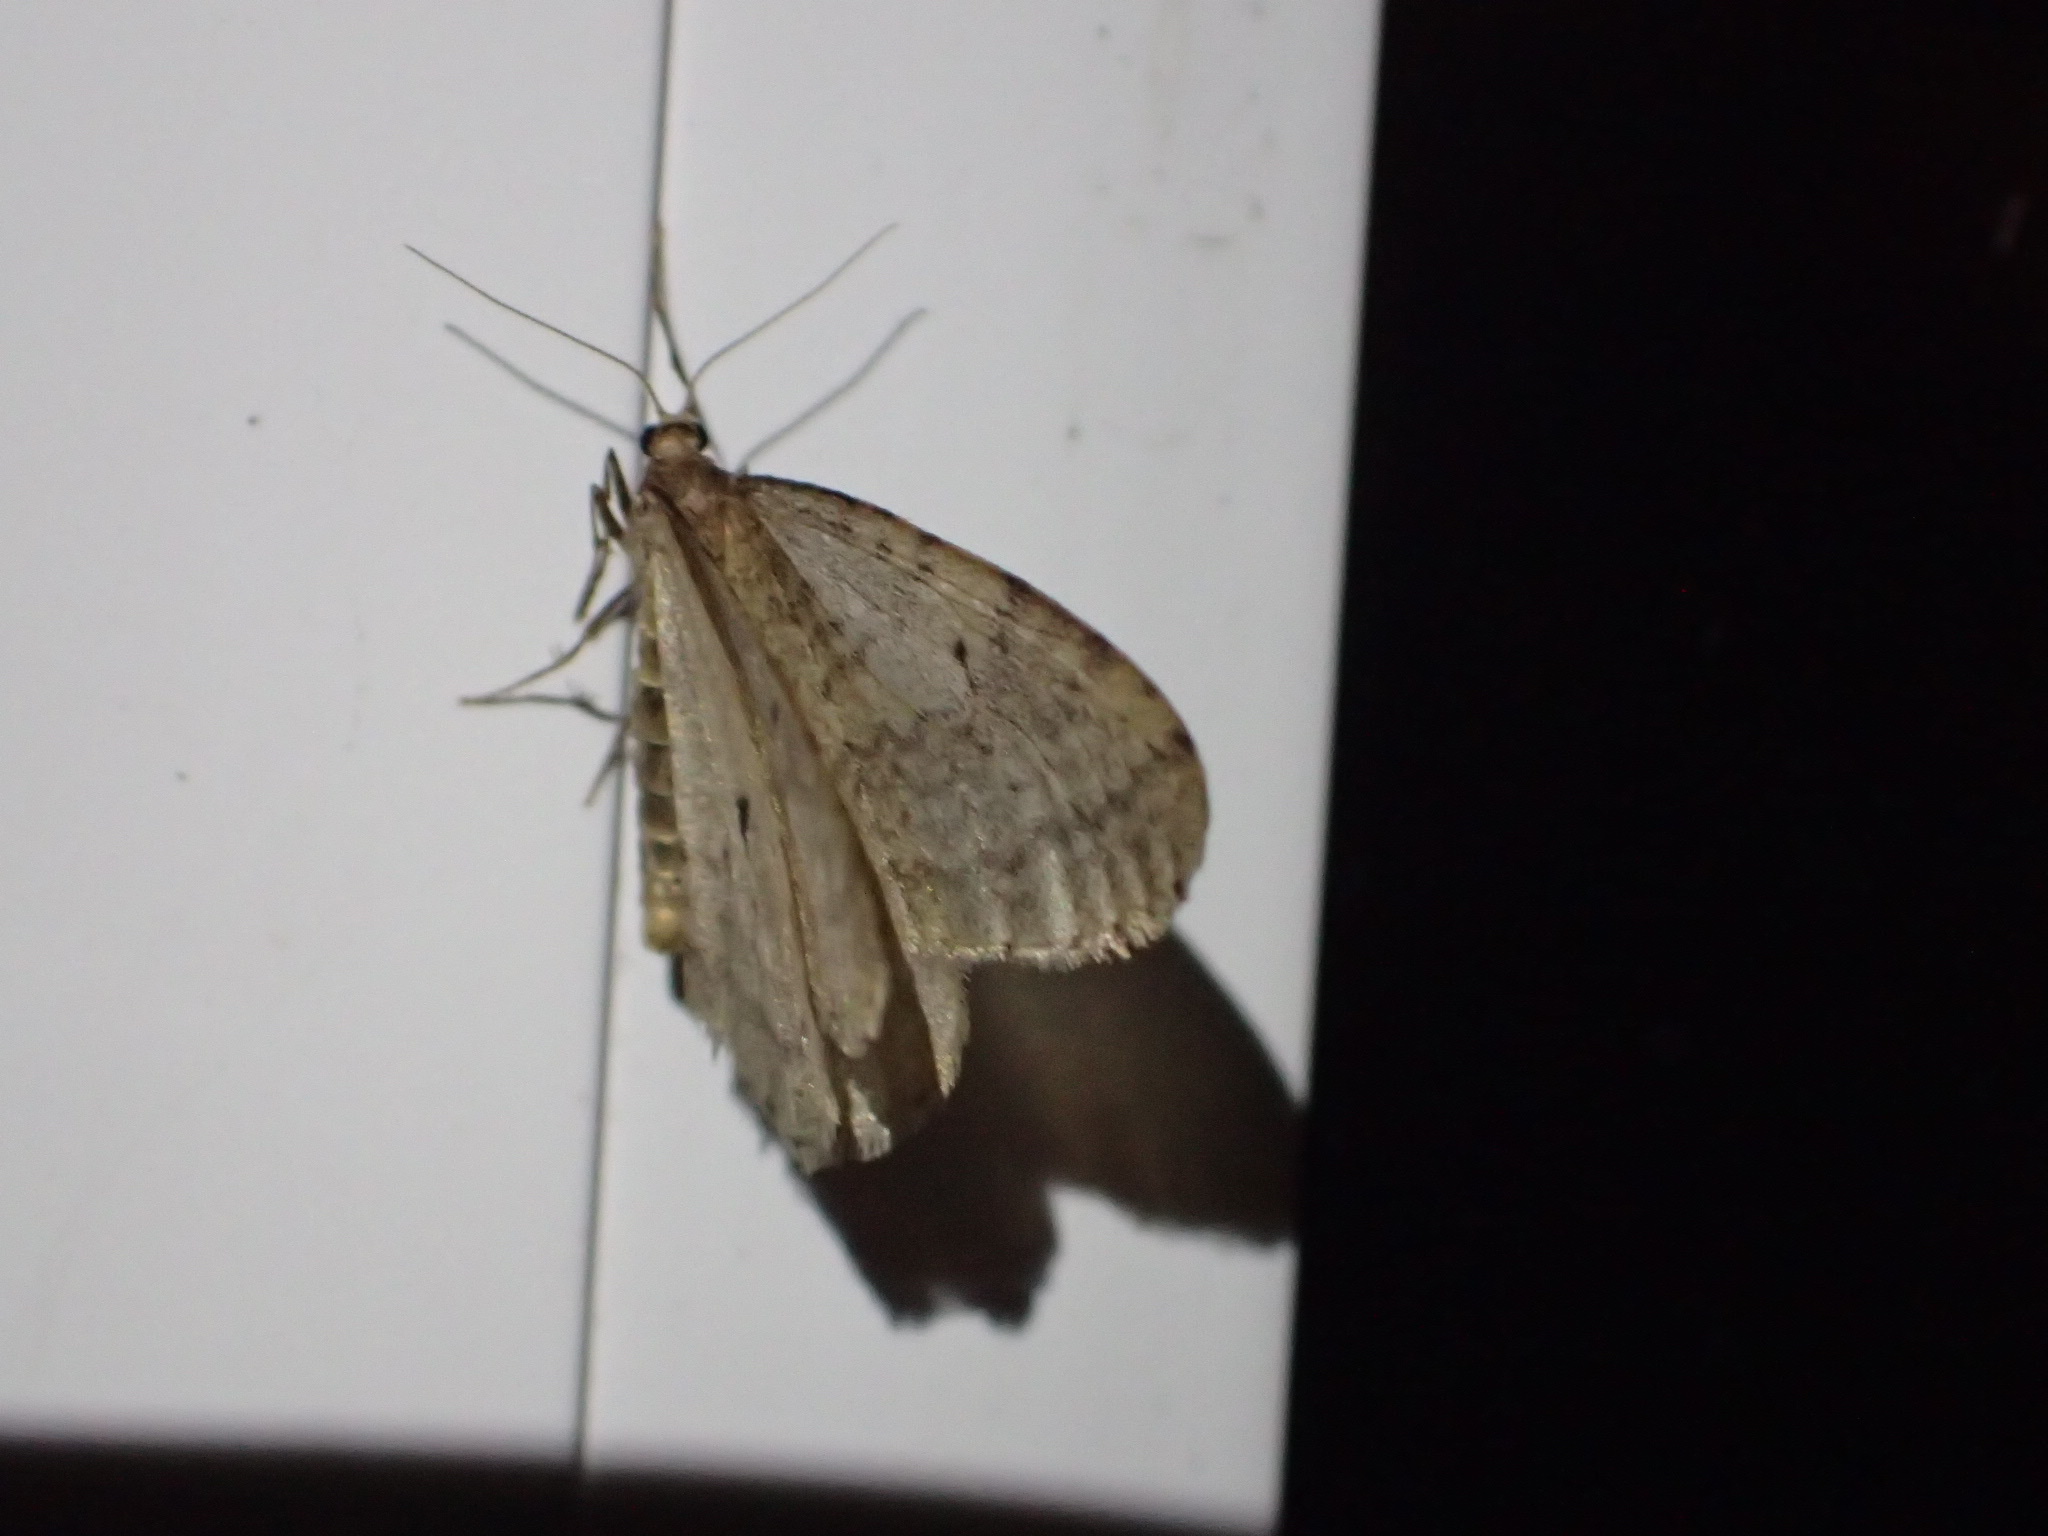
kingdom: Animalia
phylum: Arthropoda
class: Insecta
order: Lepidoptera
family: Geometridae
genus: Operophtera
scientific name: Operophtera bruceata
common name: Bruce spanworm
